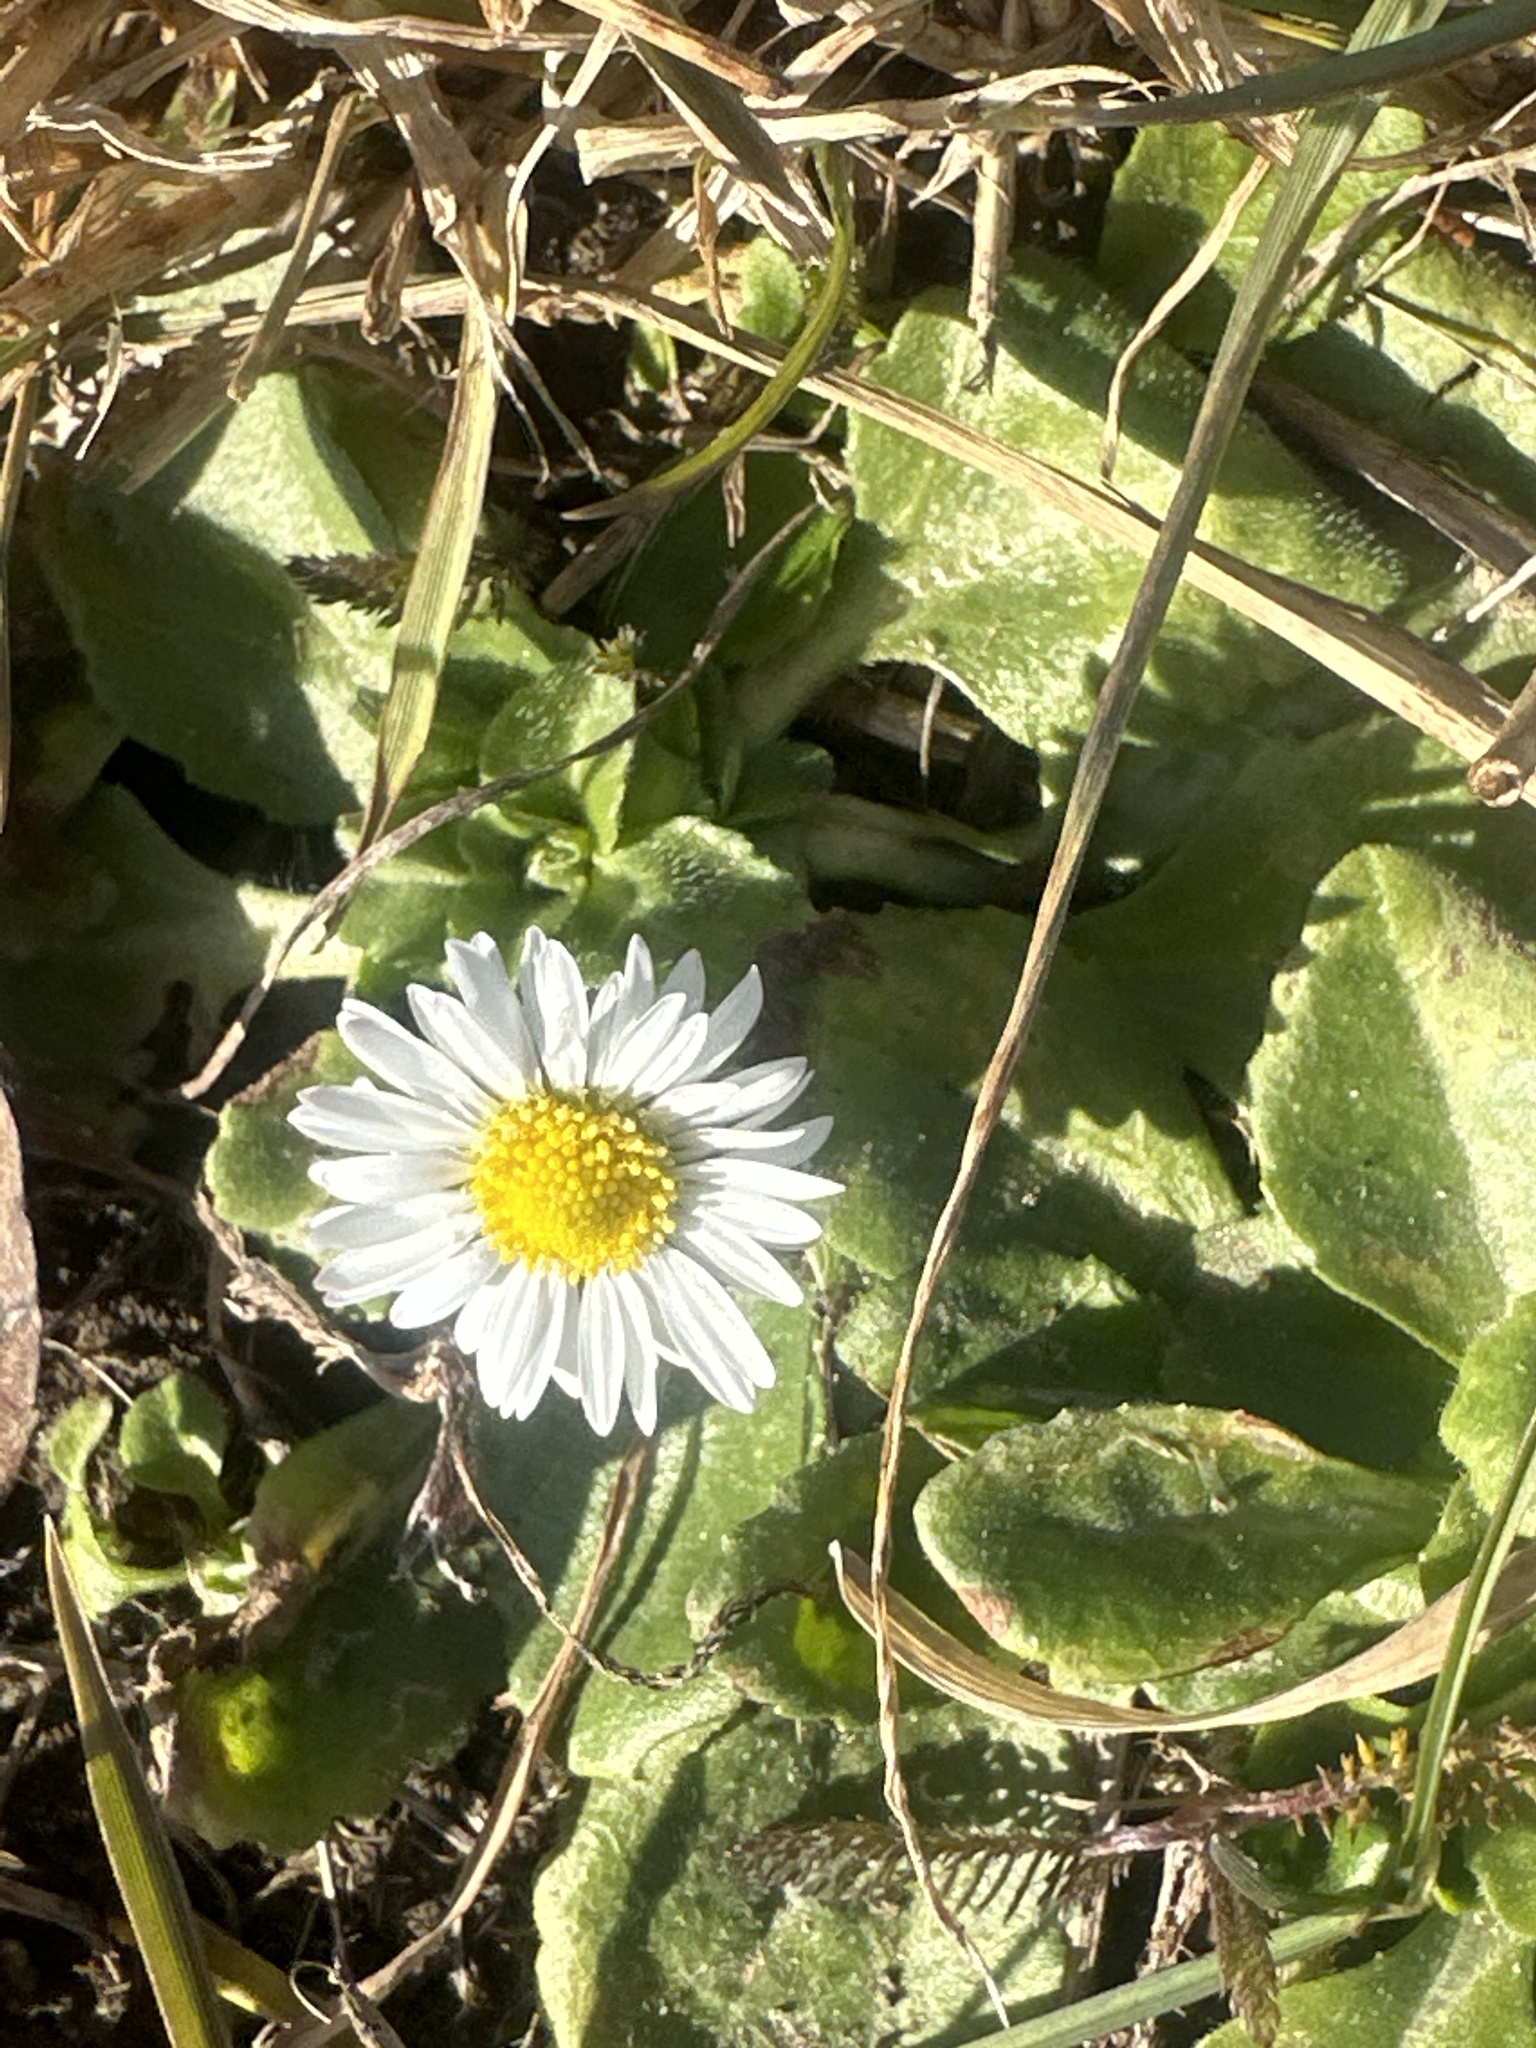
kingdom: Plantae
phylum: Tracheophyta
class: Magnoliopsida
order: Asterales
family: Asteraceae
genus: Bellis
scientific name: Bellis perennis
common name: Lawndaisy
